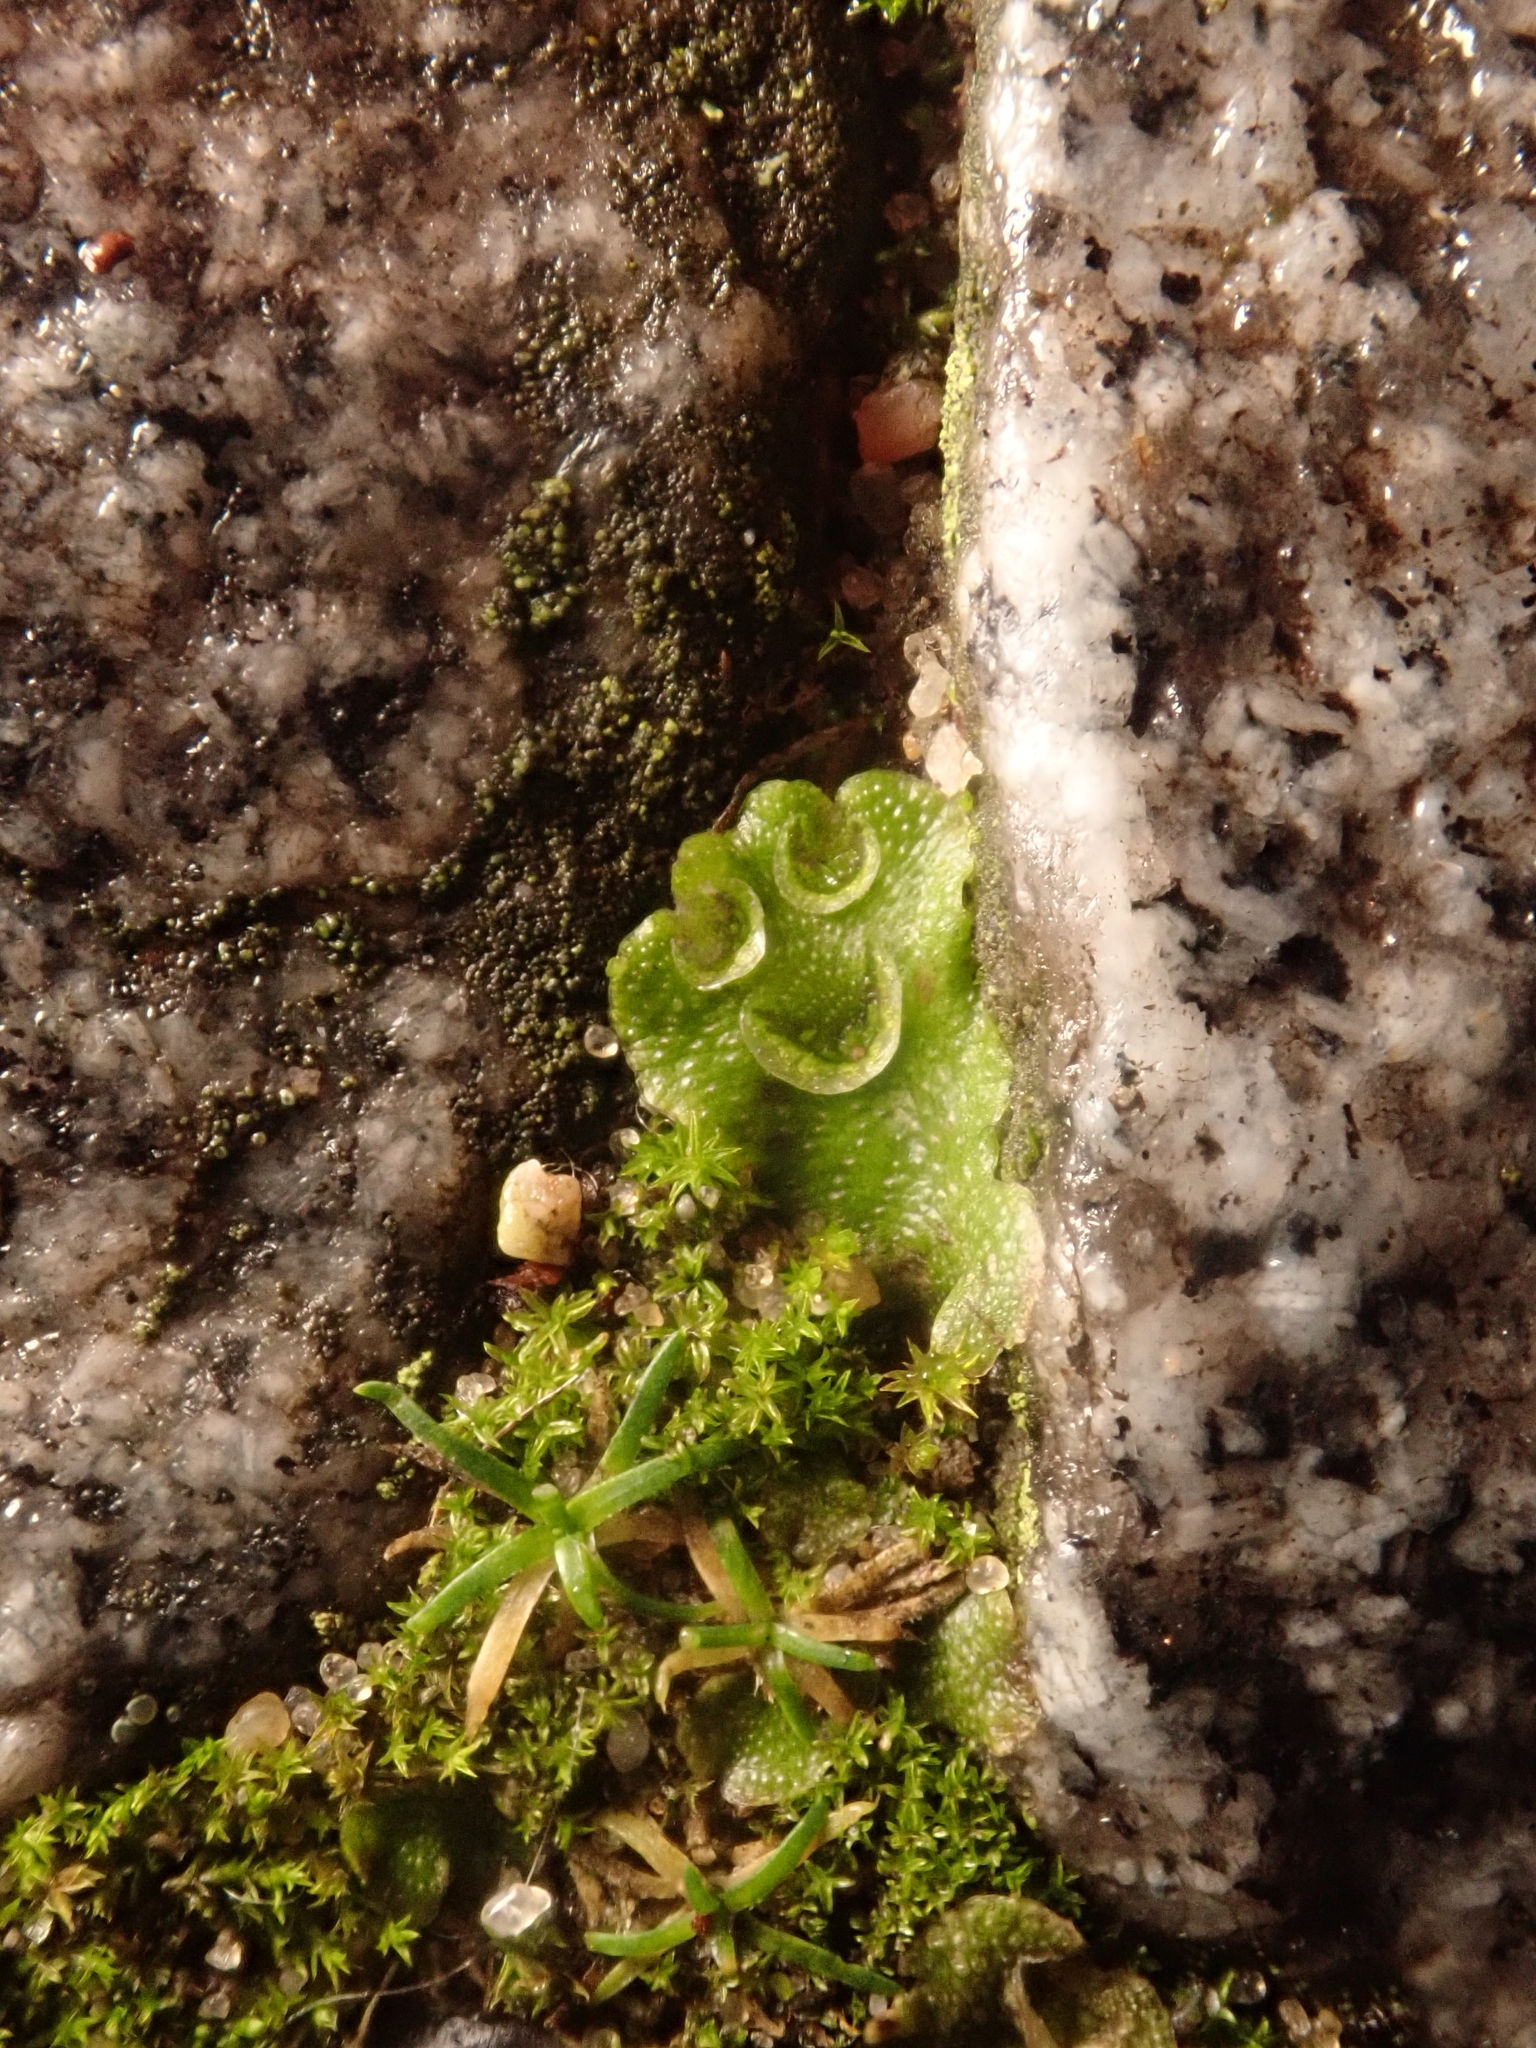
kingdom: Plantae
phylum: Marchantiophyta
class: Marchantiopsida
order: Lunulariales
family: Lunulariaceae
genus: Lunularia
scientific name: Lunularia cruciata
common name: Crescent-cup liverwort
